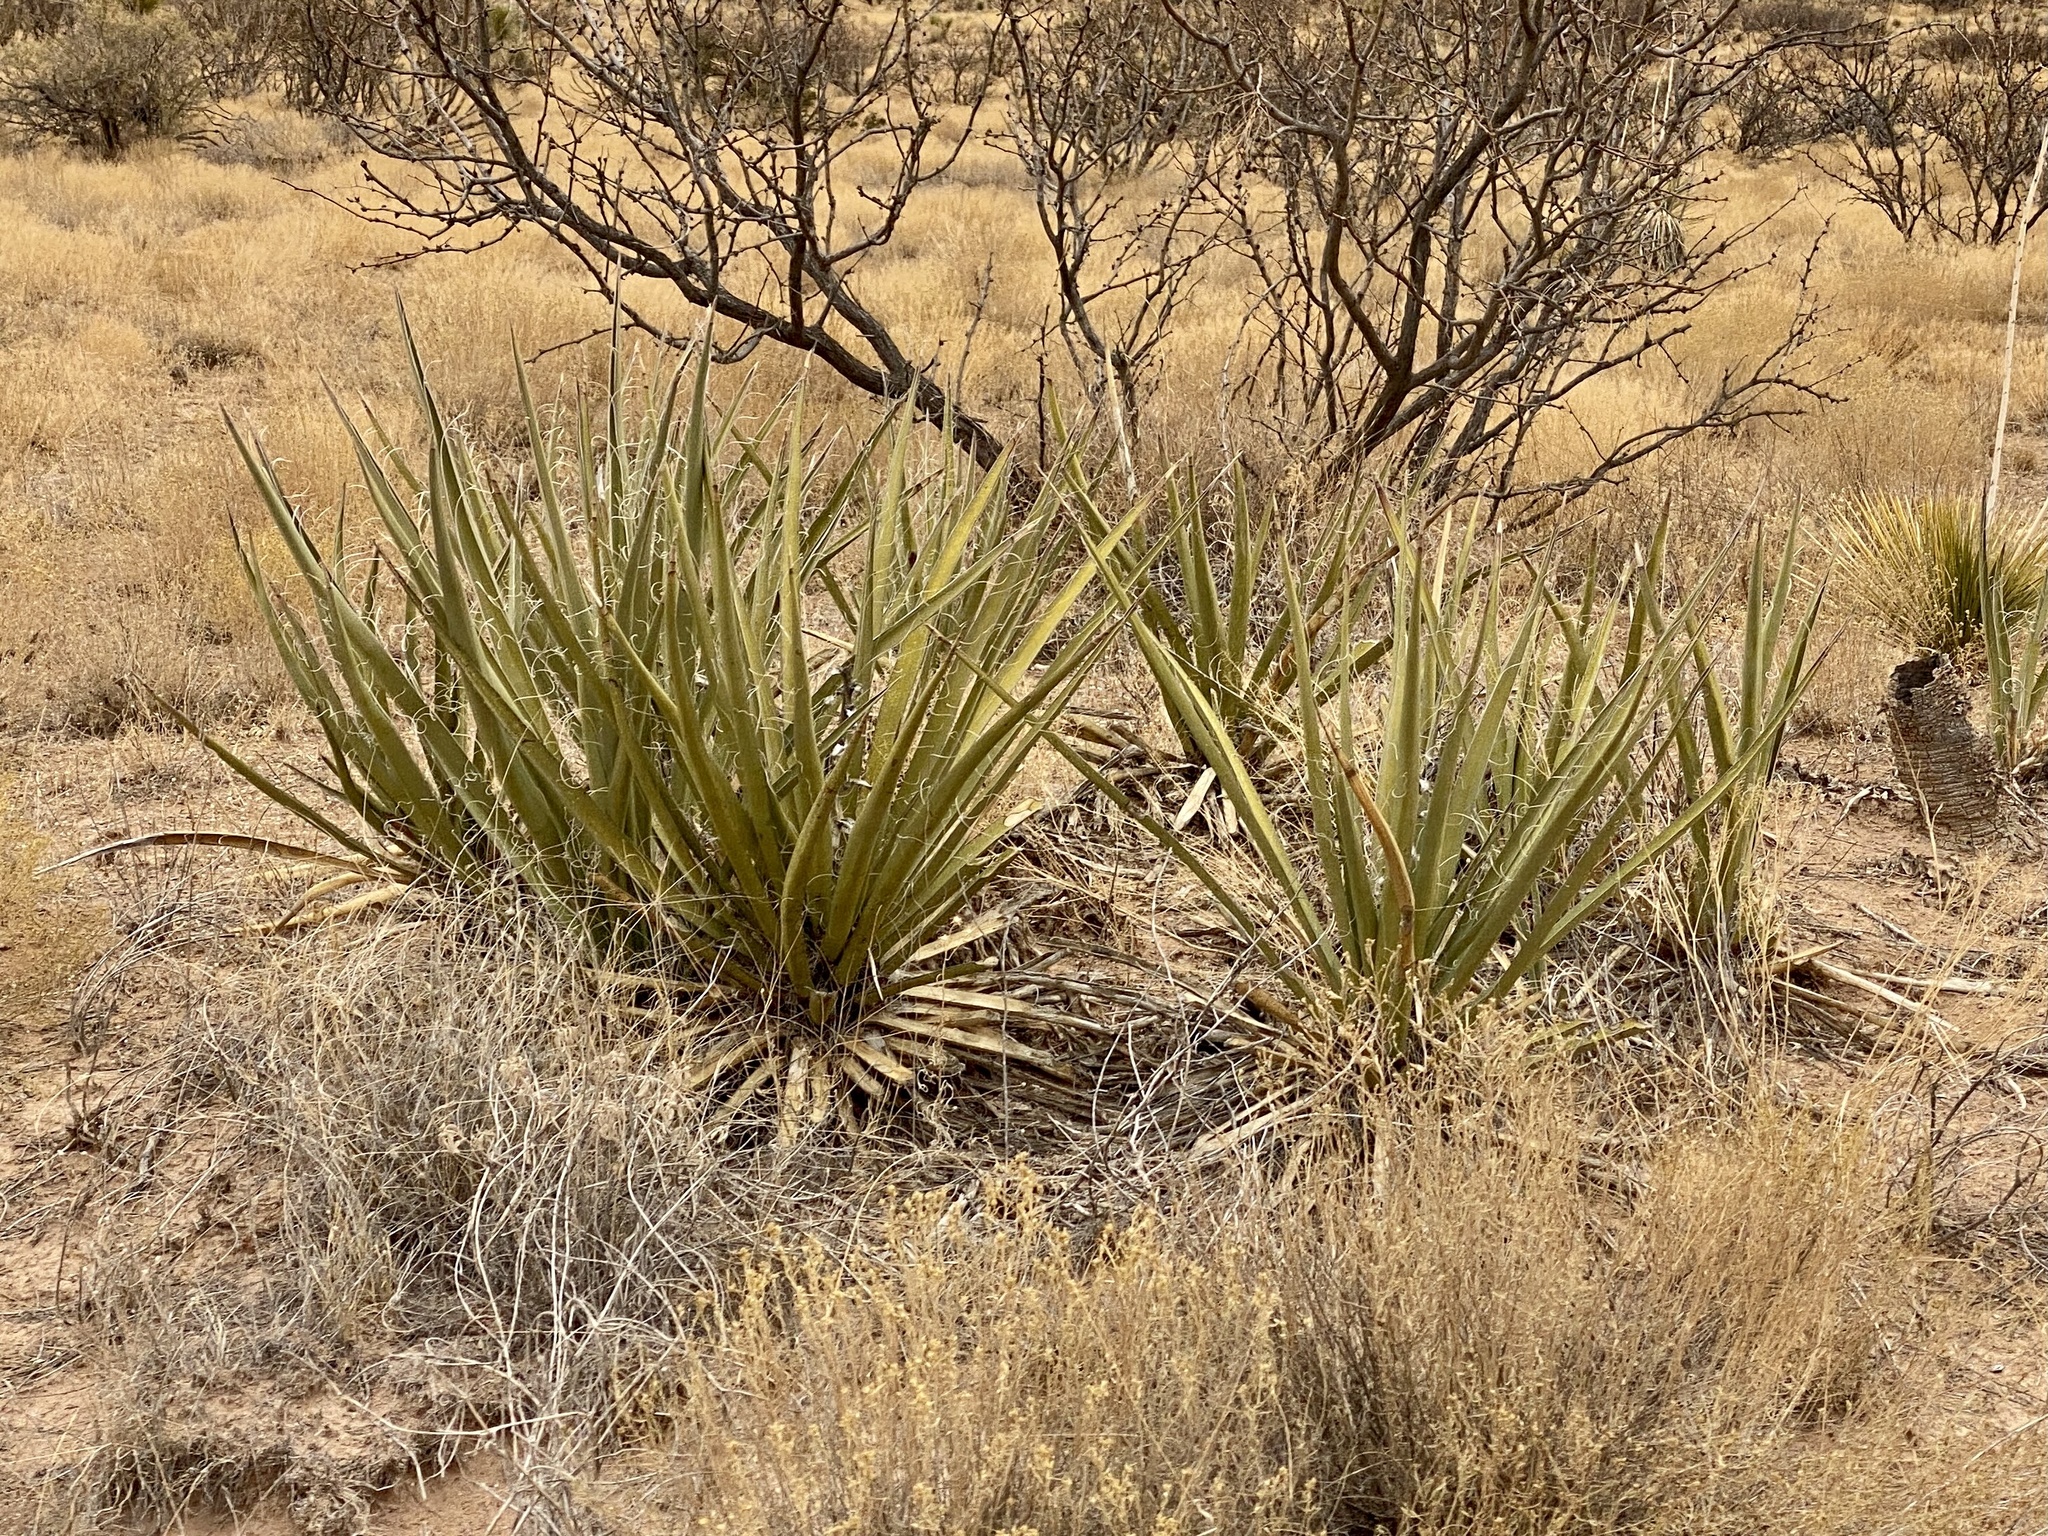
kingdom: Plantae
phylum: Tracheophyta
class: Liliopsida
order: Asparagales
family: Asparagaceae
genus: Yucca
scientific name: Yucca baccata
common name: Banana yucca
